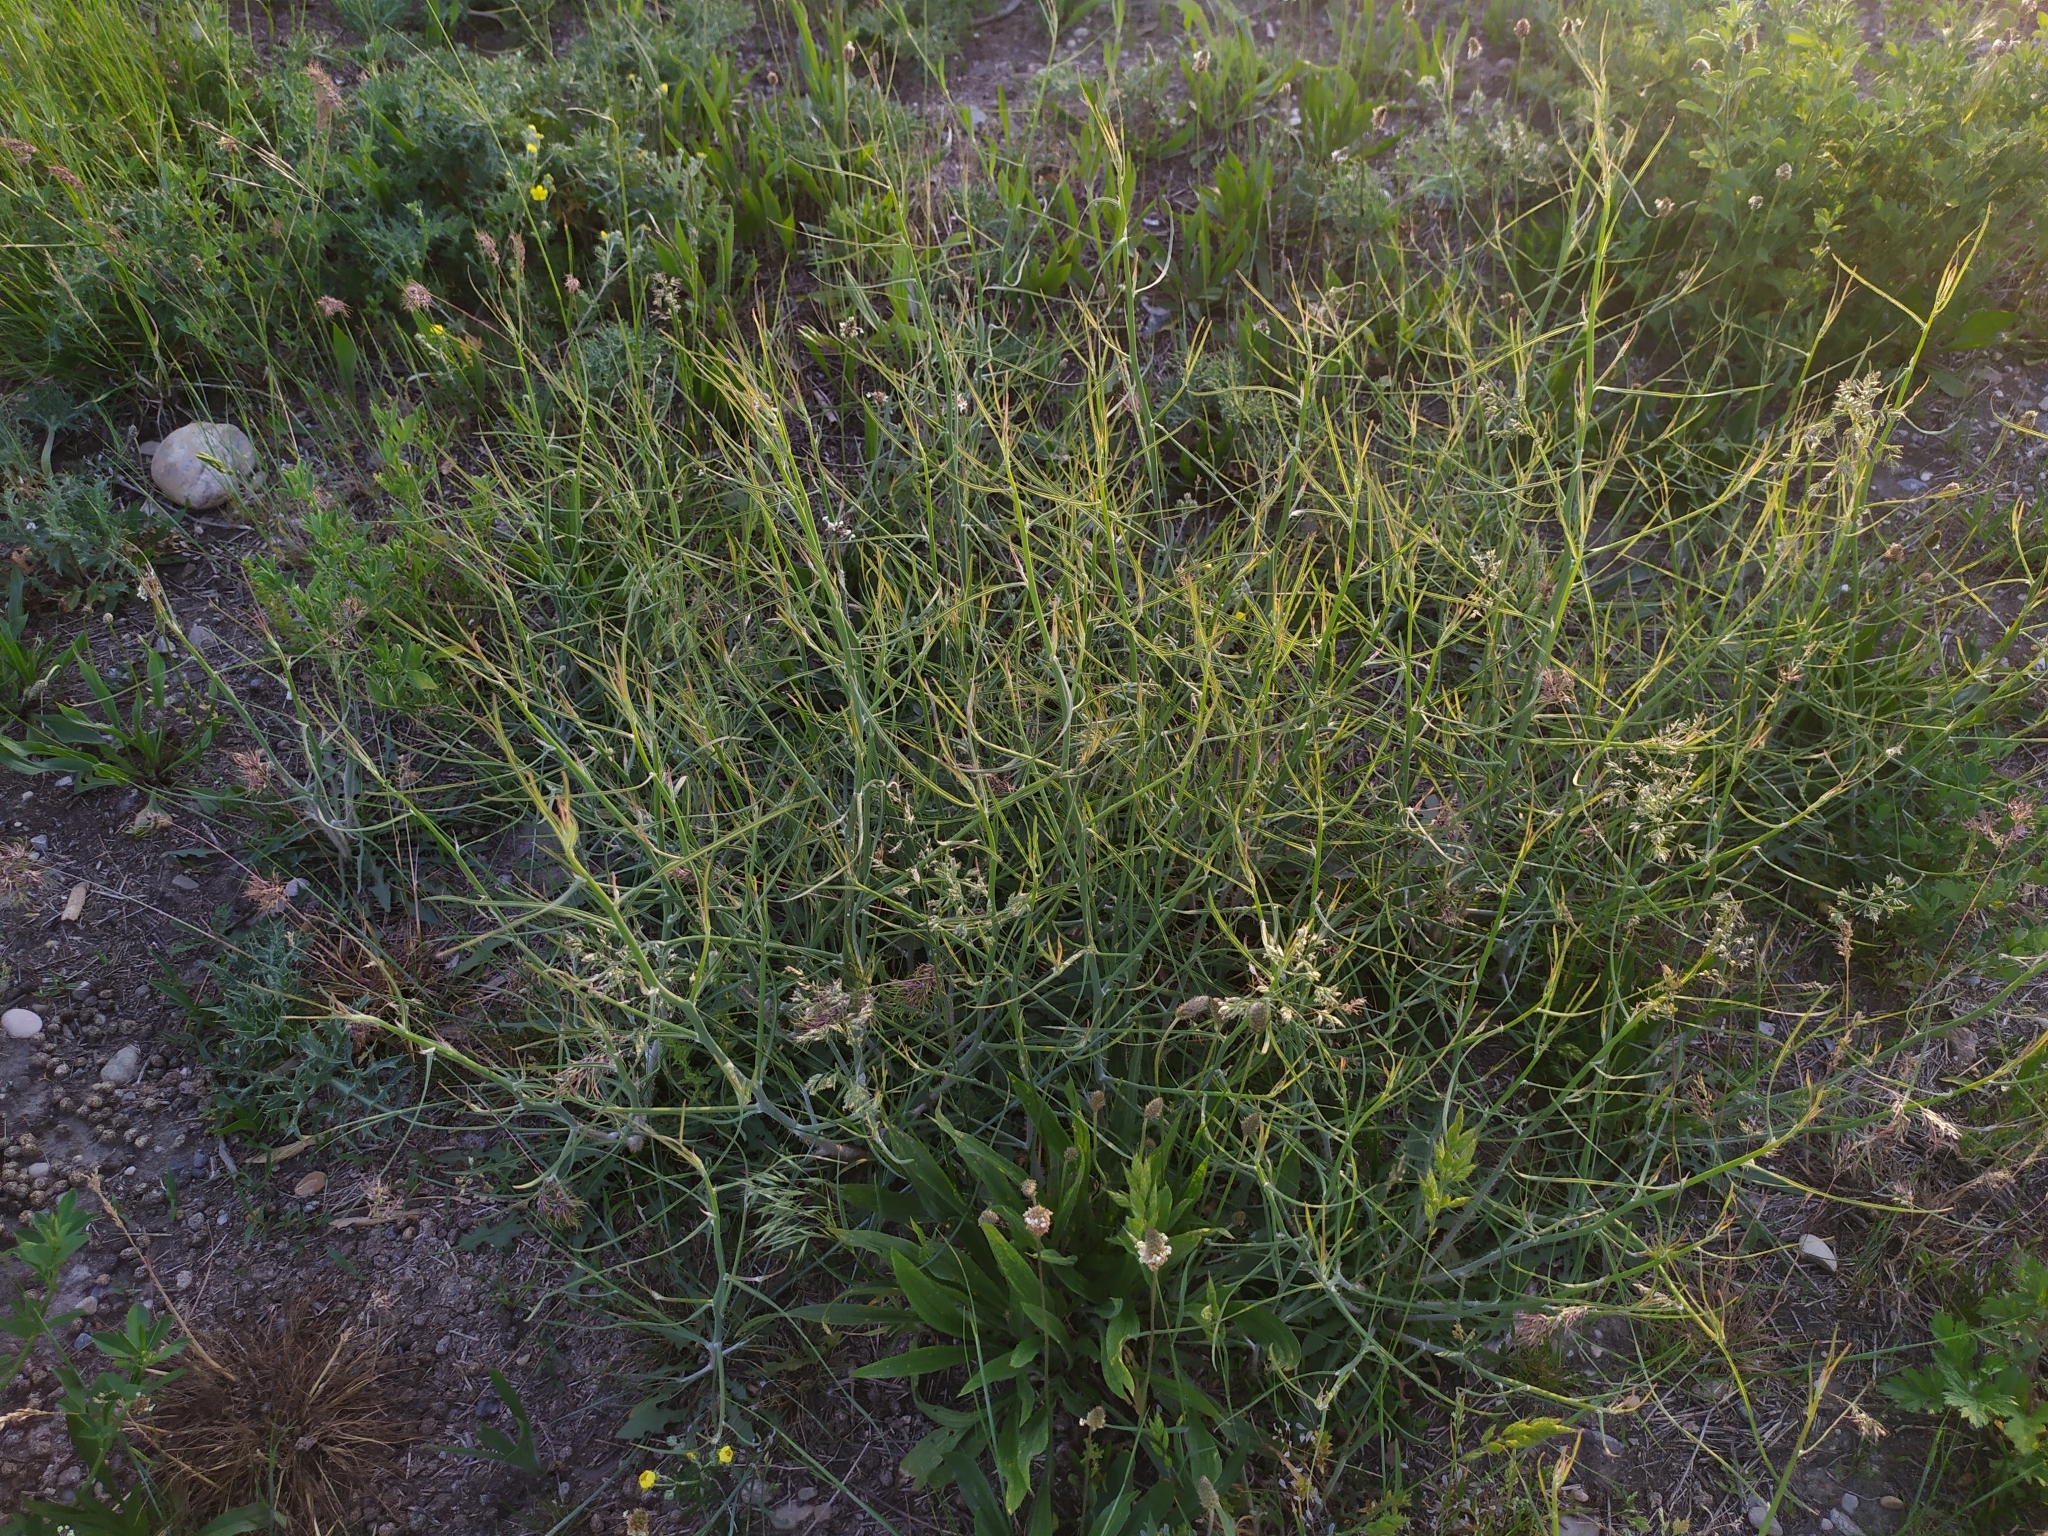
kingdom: Plantae
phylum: Tracheophyta
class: Magnoliopsida
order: Asterales
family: Asteraceae
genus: Chondrilla
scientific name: Chondrilla juncea
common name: Skeleton weed
